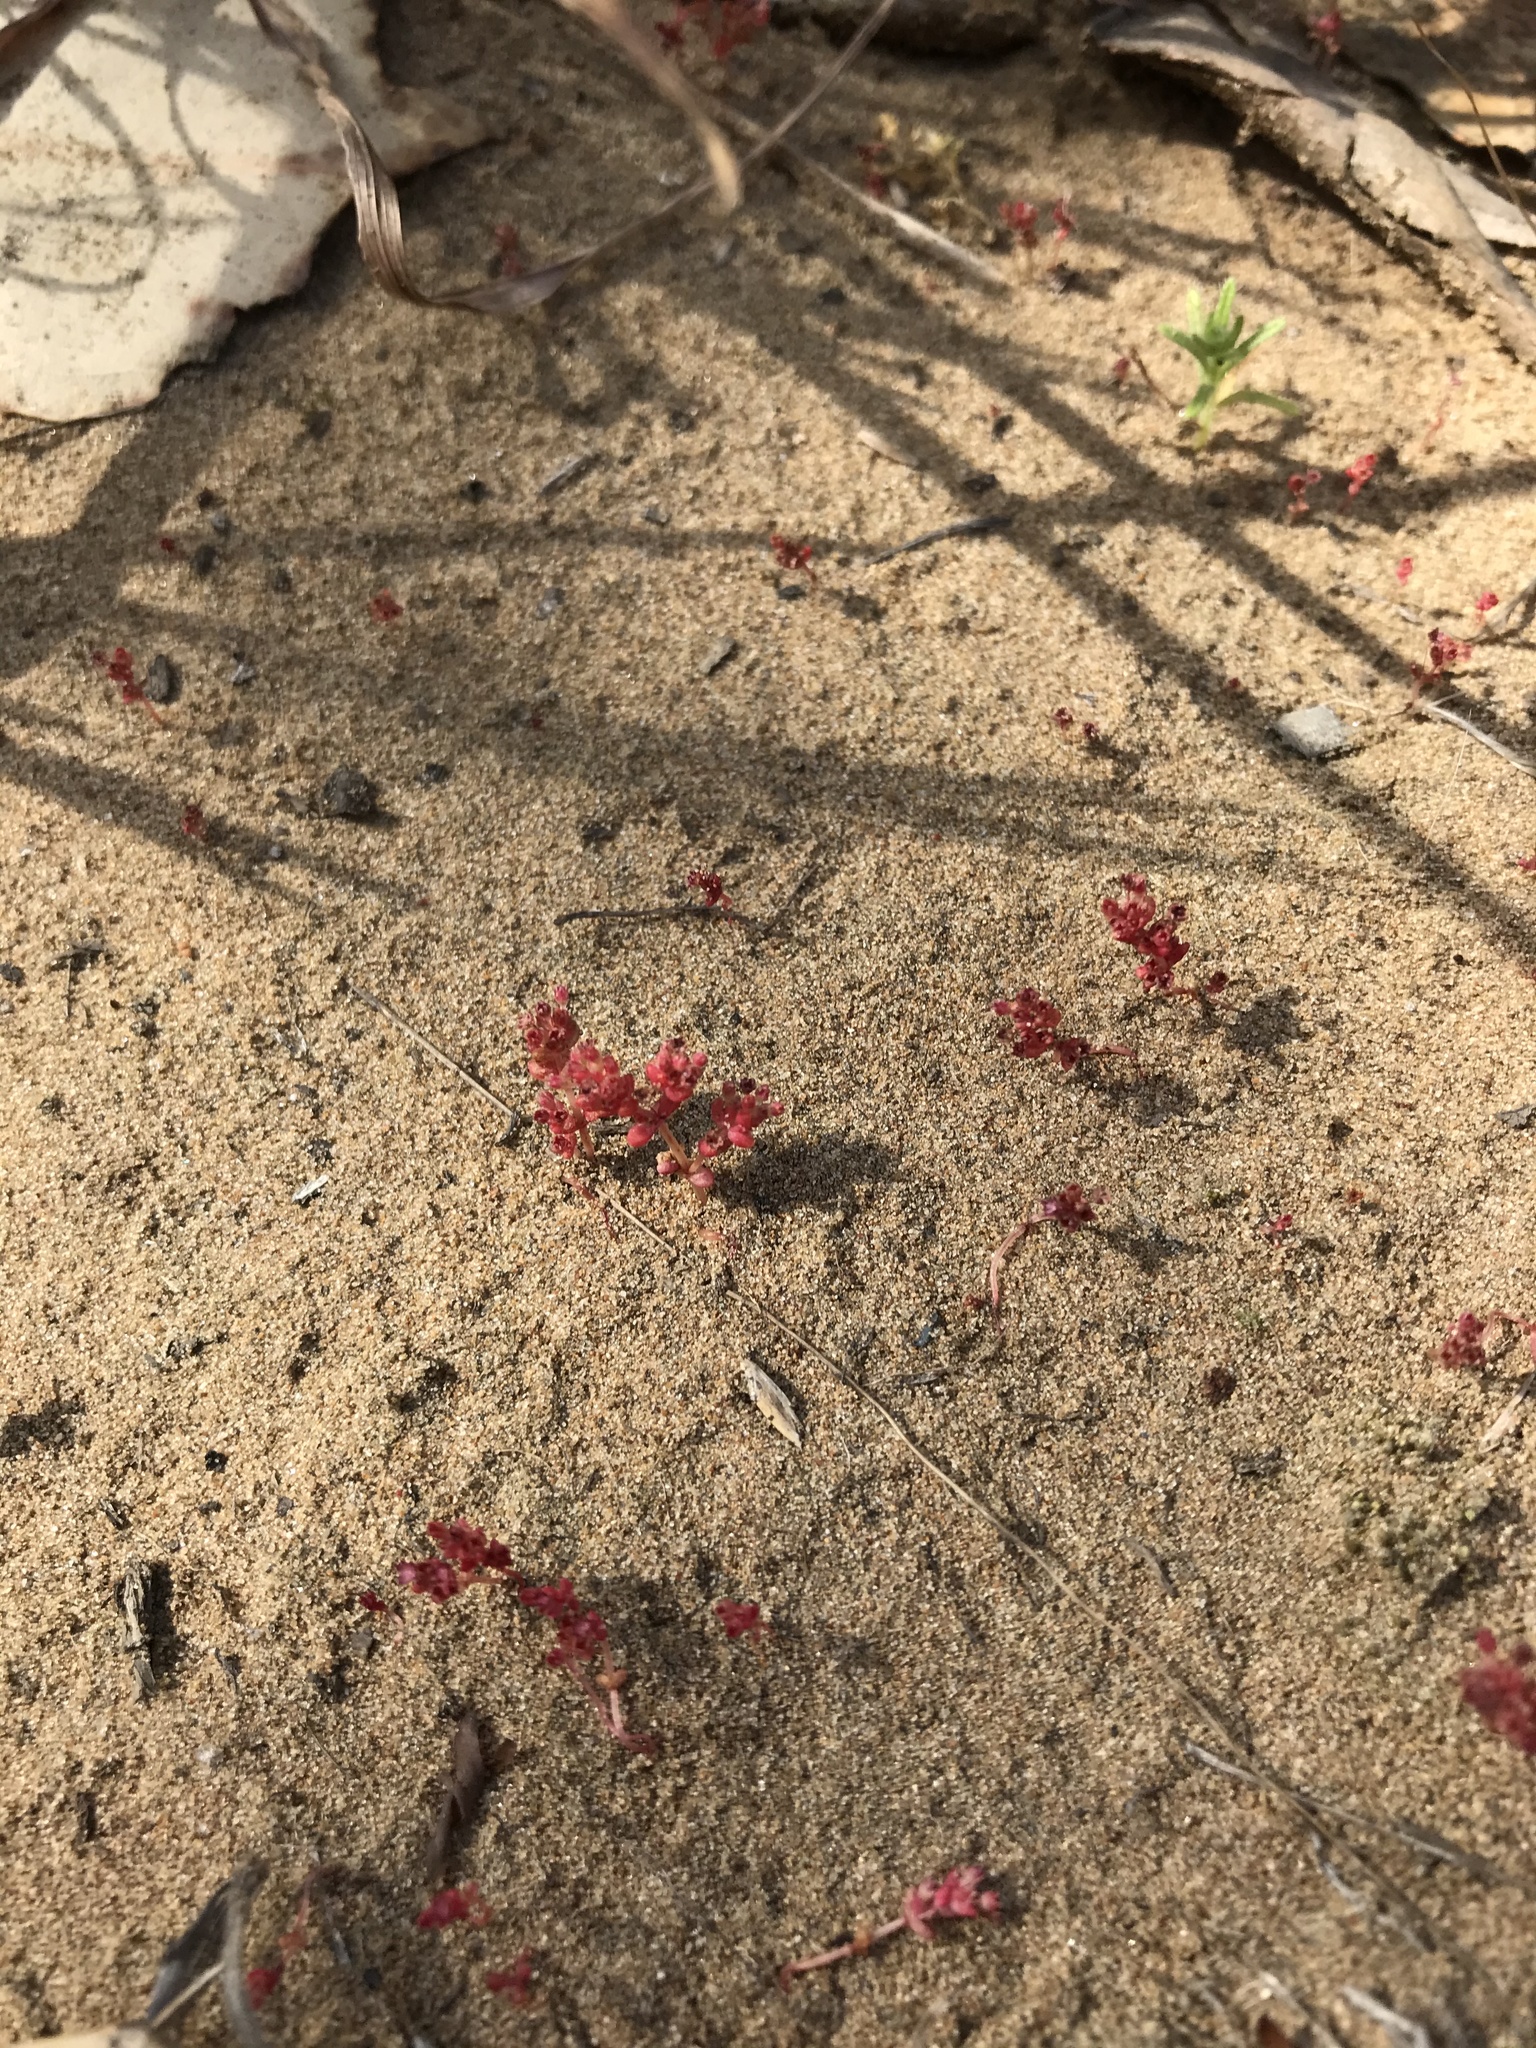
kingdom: Plantae
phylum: Tracheophyta
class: Magnoliopsida
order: Saxifragales
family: Crassulaceae
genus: Crassula
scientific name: Crassula connata
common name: Erect pygmyweed
